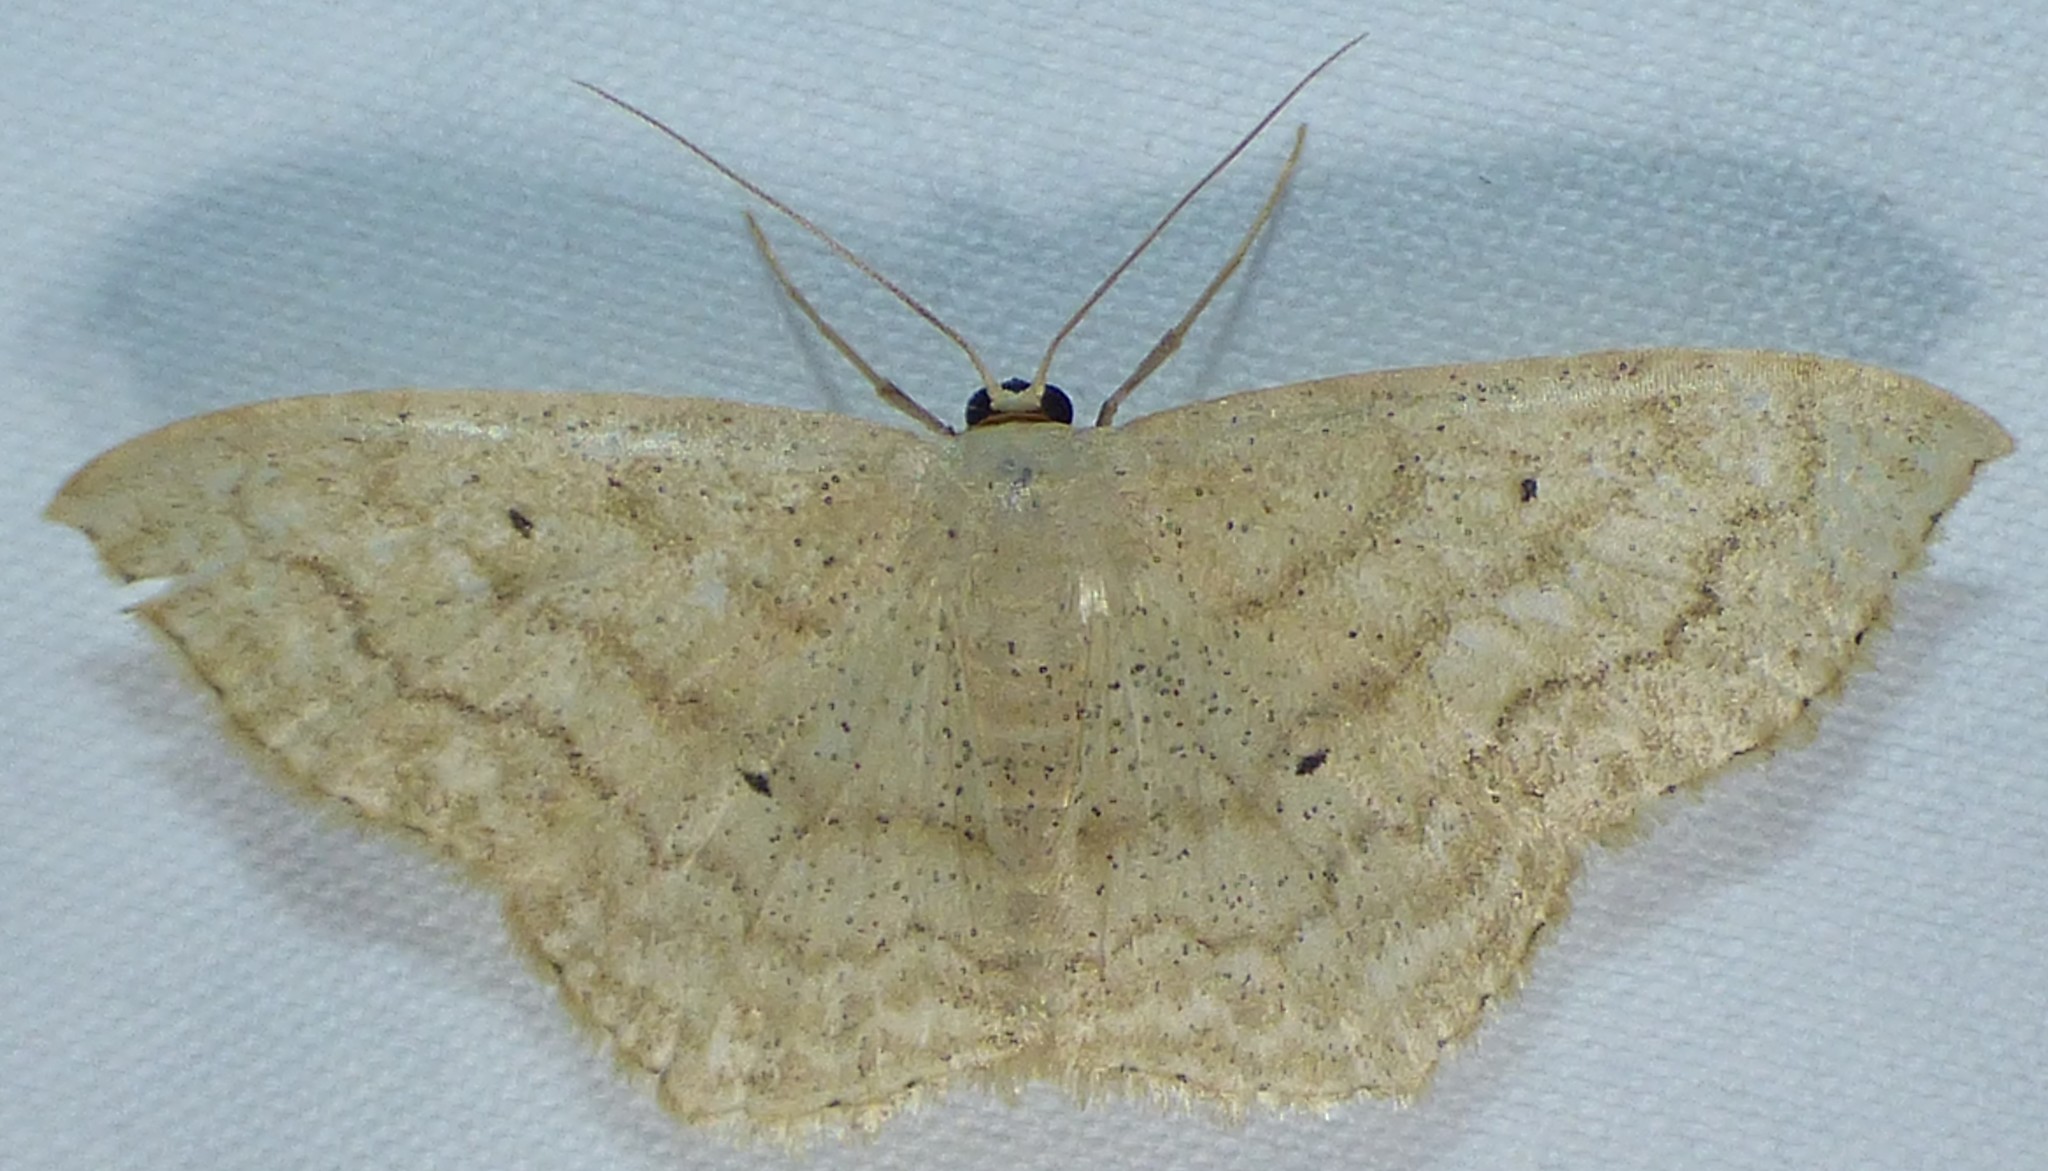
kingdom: Animalia
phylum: Arthropoda
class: Insecta
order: Lepidoptera
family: Geometridae
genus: Scopula
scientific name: Scopula limboundata
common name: Large lace border
